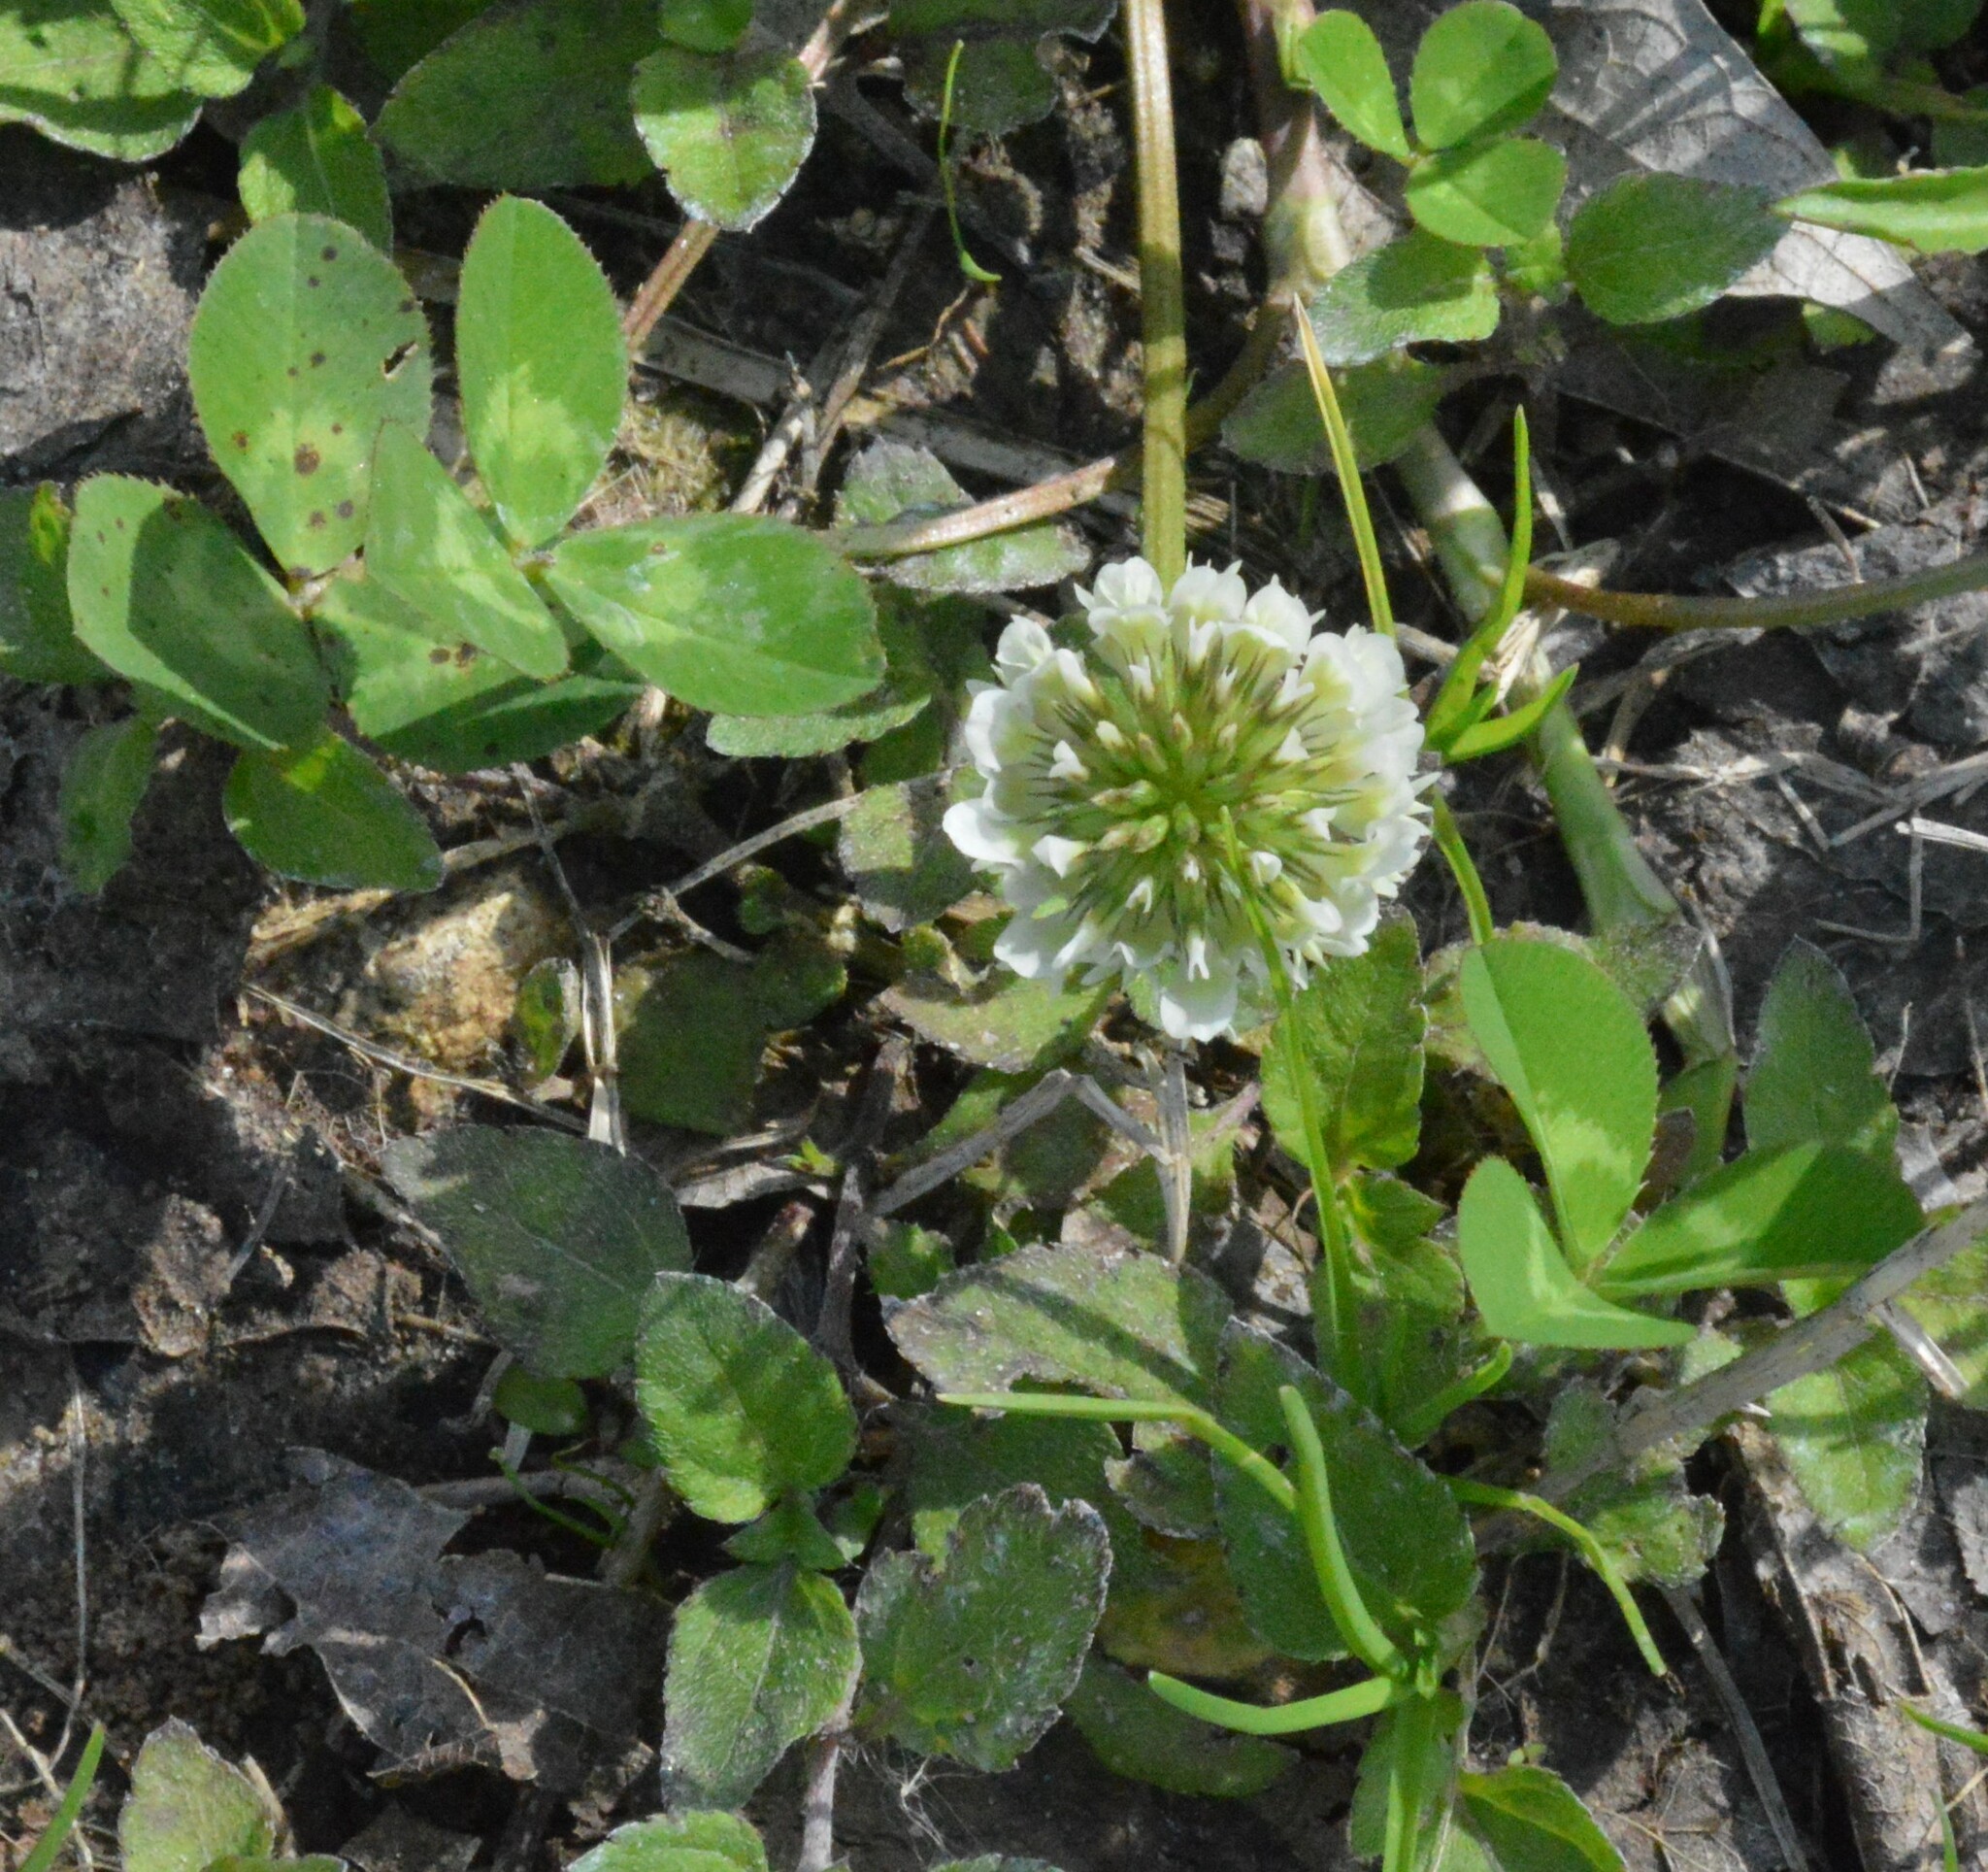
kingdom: Plantae
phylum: Tracheophyta
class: Magnoliopsida
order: Fabales
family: Fabaceae
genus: Trifolium
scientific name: Trifolium repens
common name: White clover
